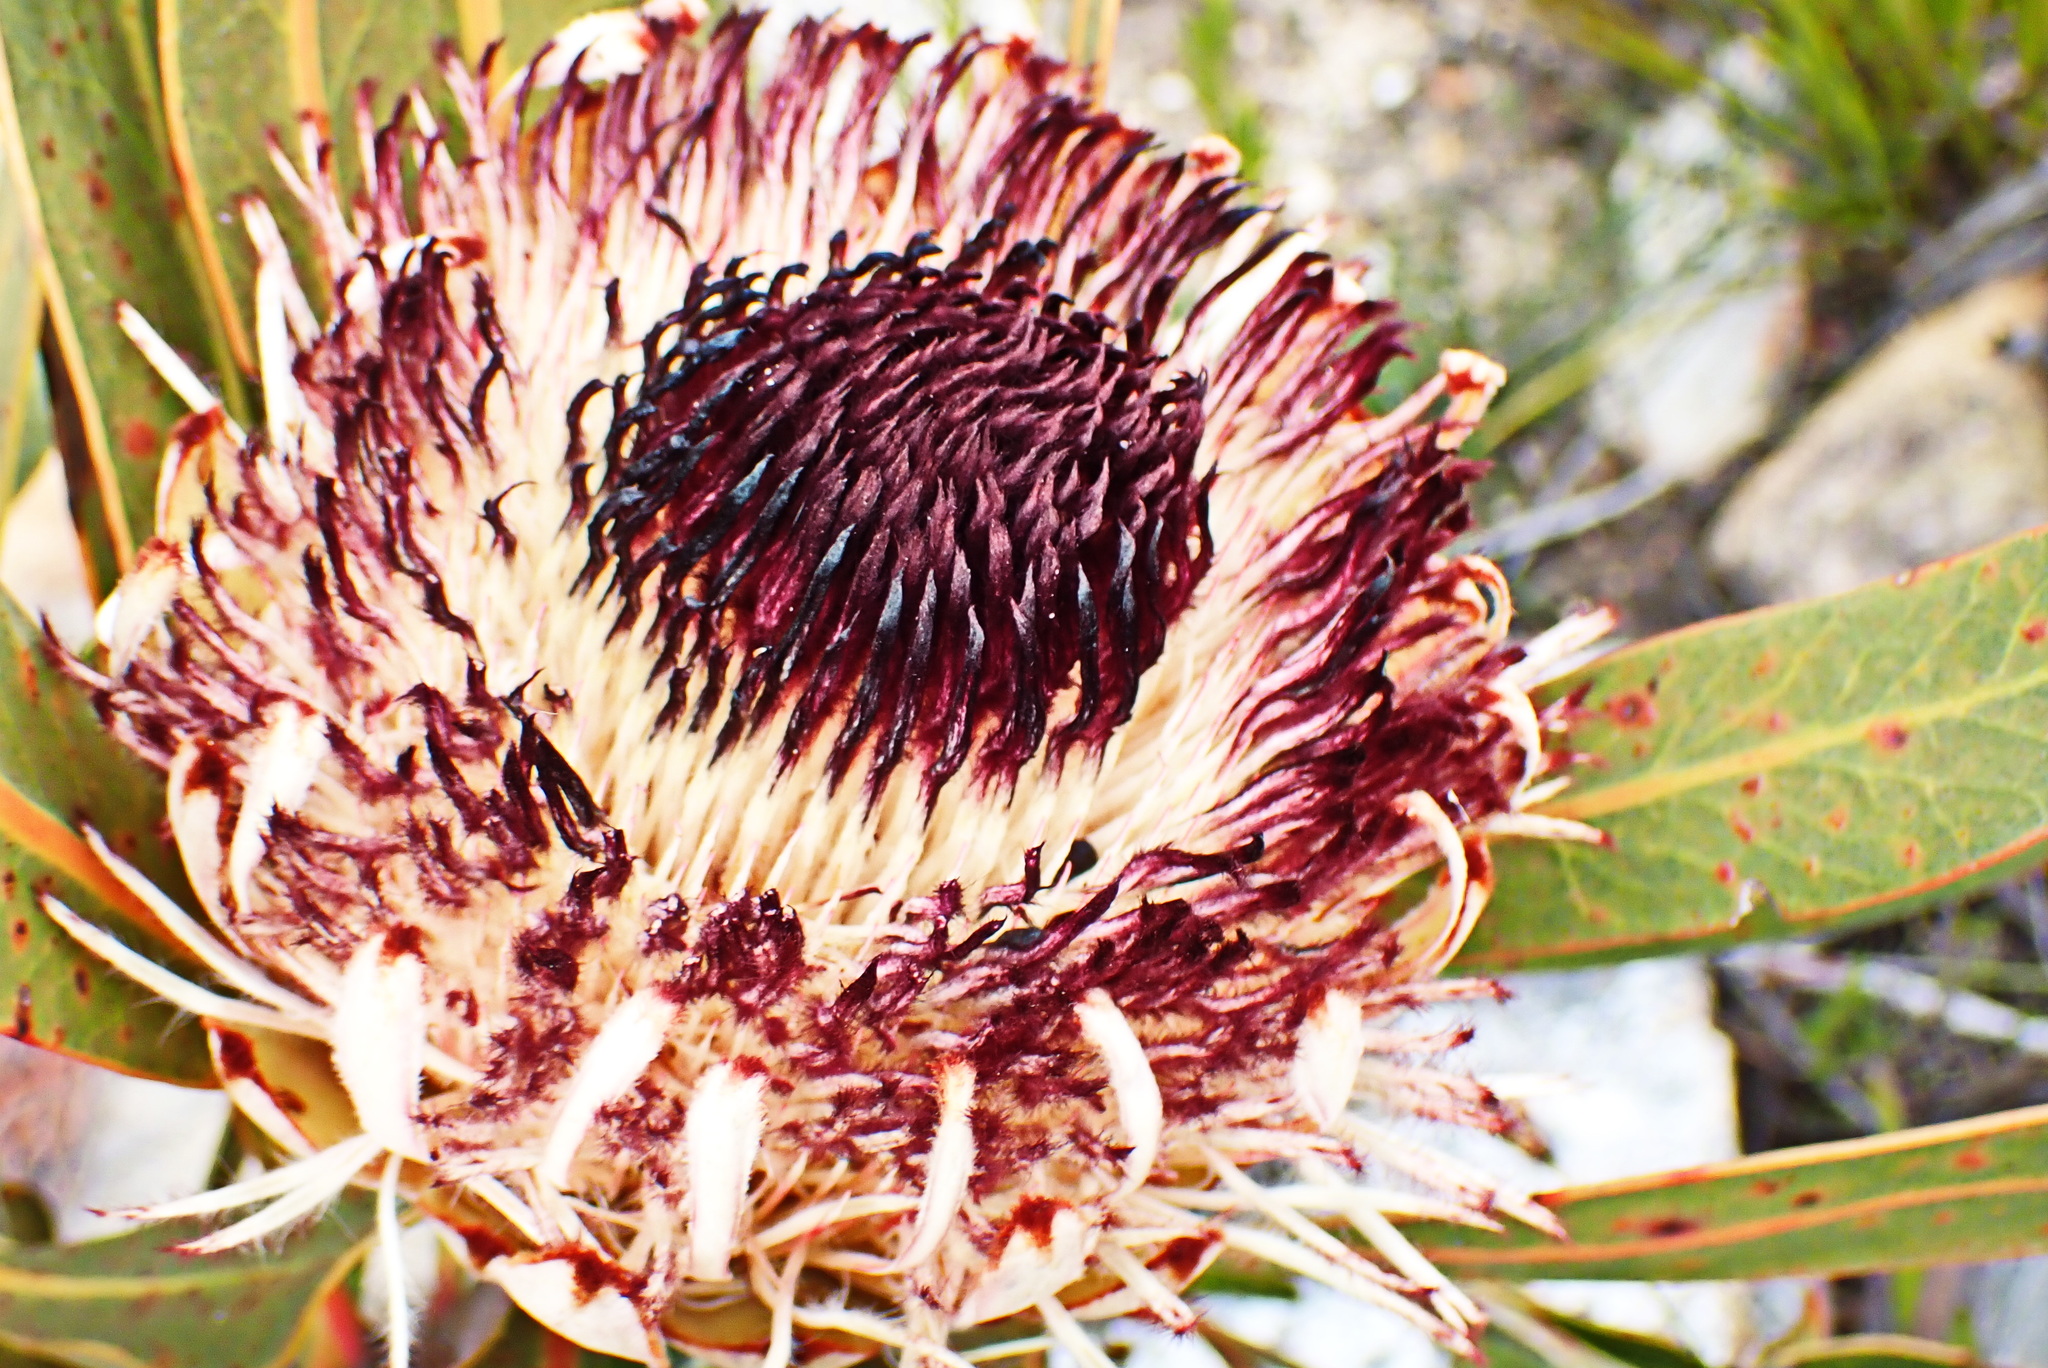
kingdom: Plantae
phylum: Tracheophyta
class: Magnoliopsida
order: Proteales
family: Proteaceae
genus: Protea
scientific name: Protea lorifolia
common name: Strap-leaved protea
